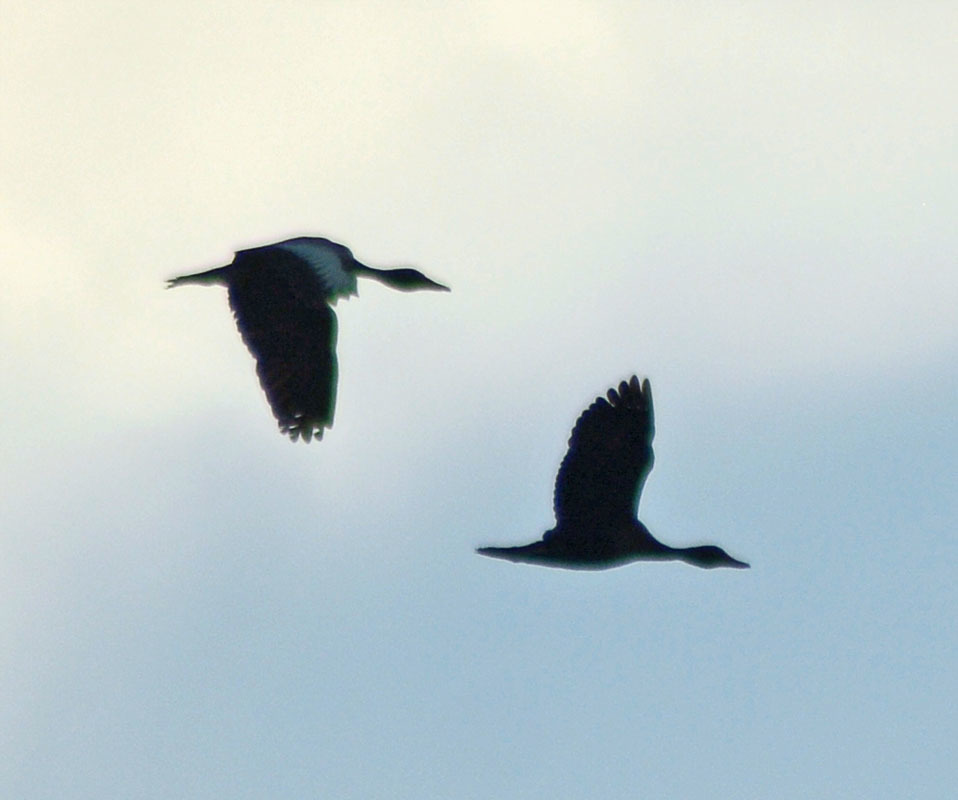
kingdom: Animalia
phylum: Chordata
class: Aves
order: Anseriformes
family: Anatidae
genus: Dendrocygna
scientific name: Dendrocygna autumnalis
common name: Black-bellied whistling duck
